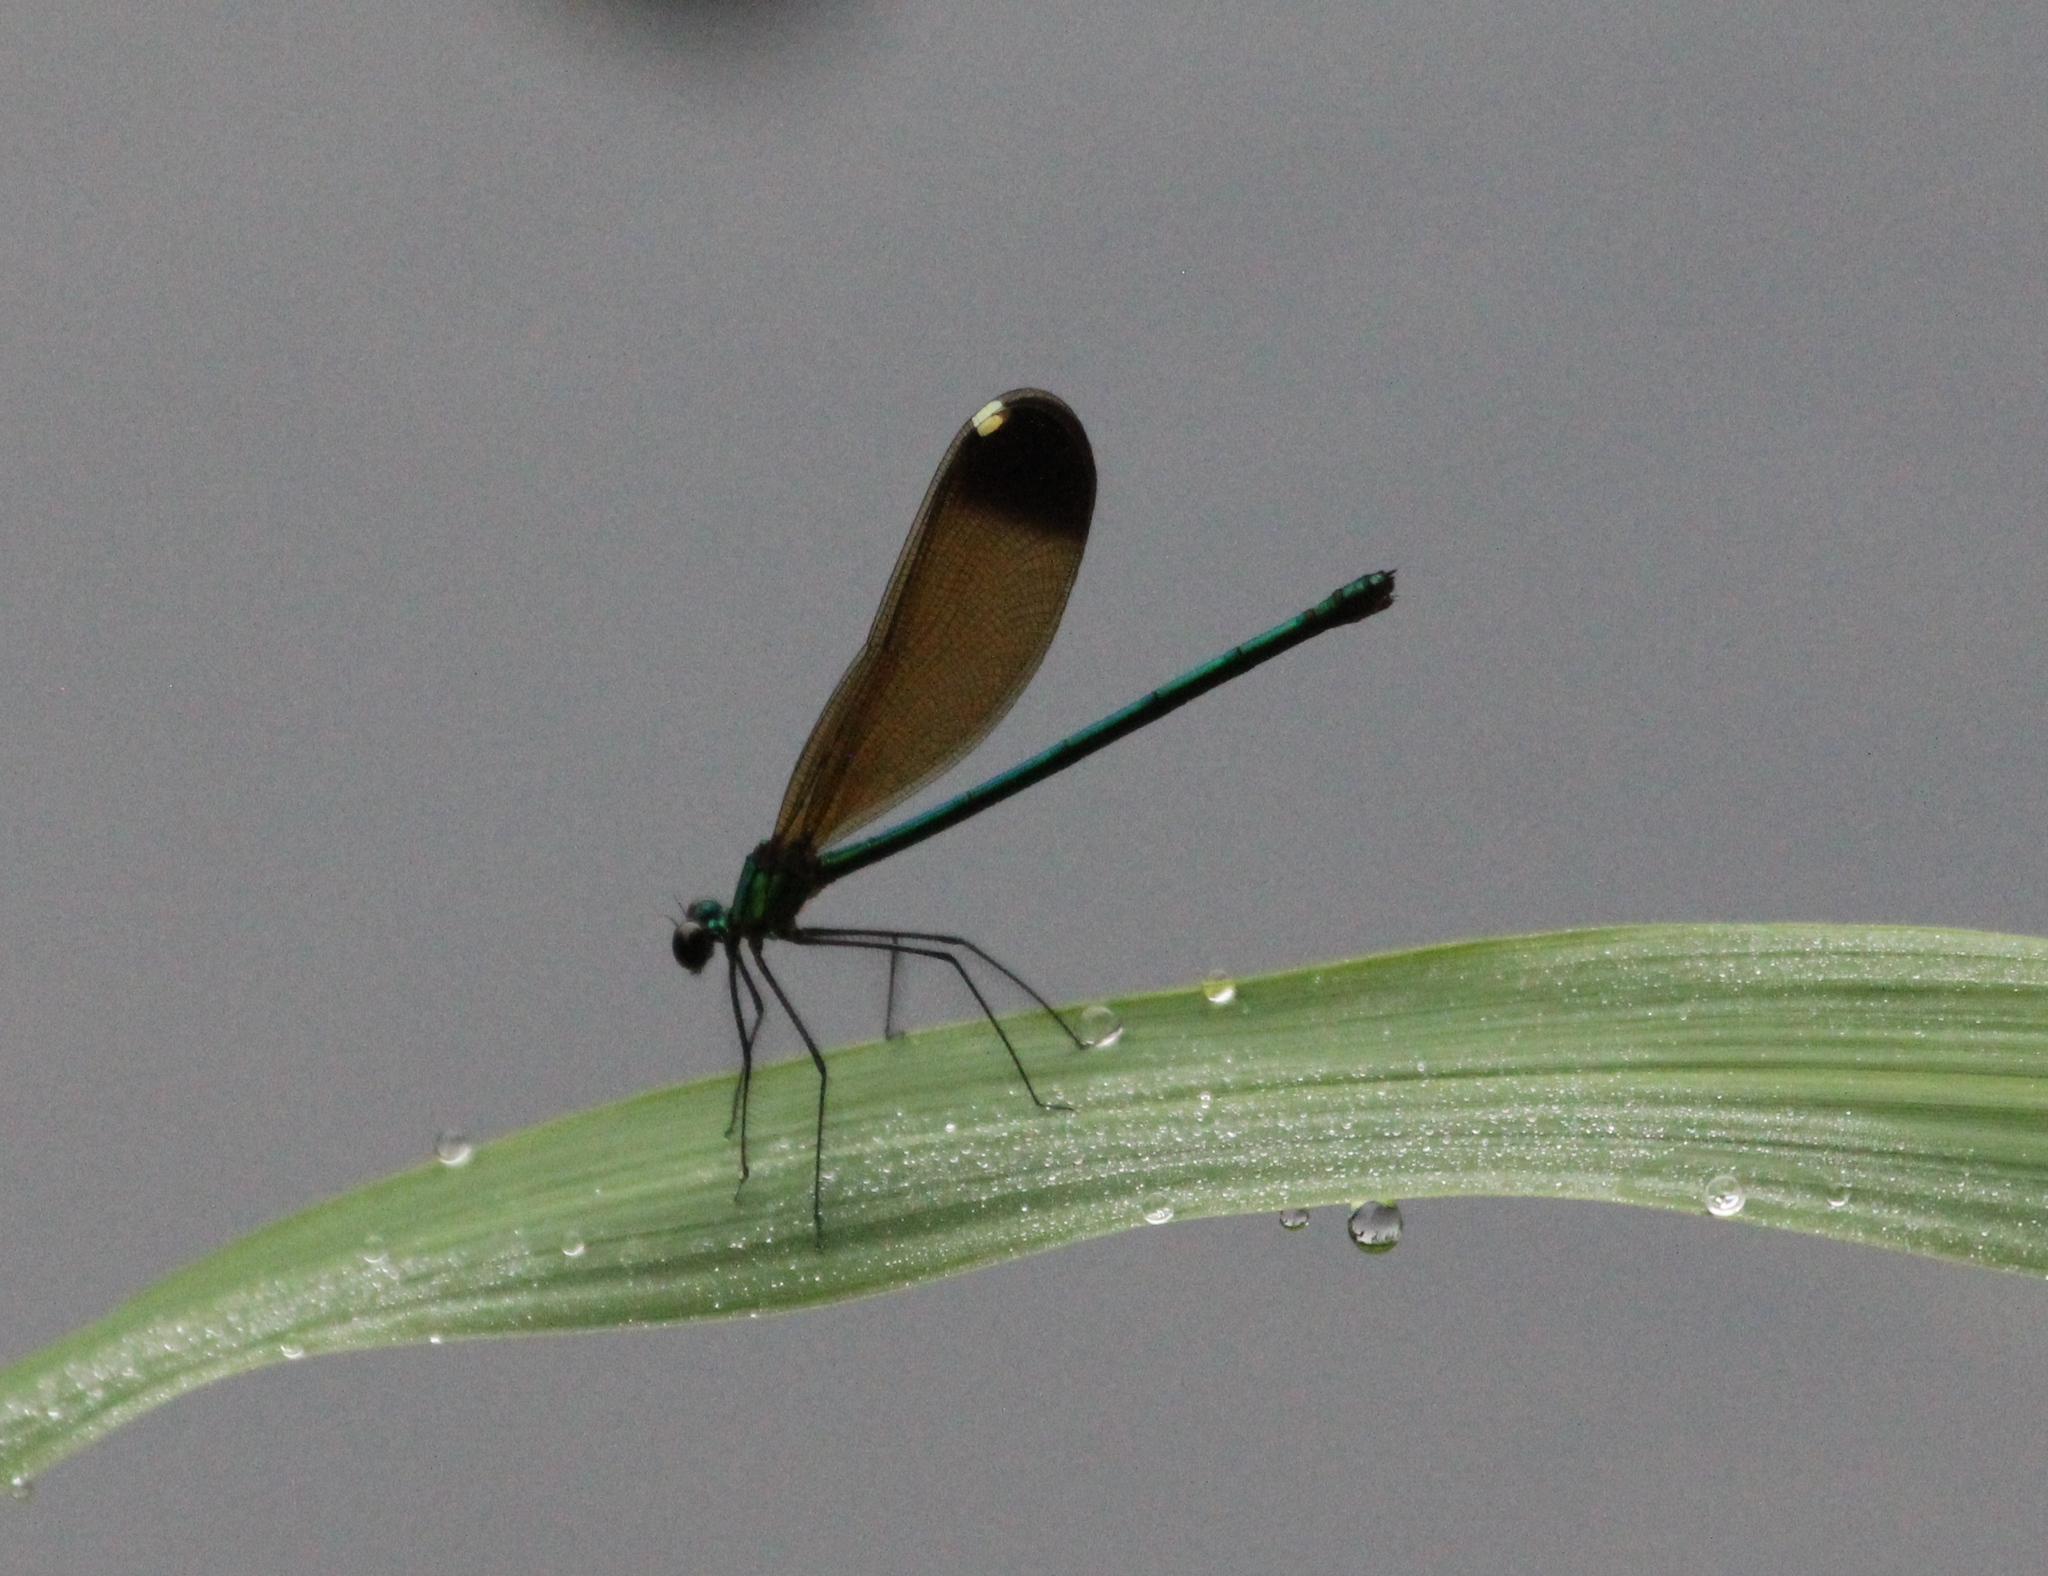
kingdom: Animalia
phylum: Arthropoda
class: Insecta
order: Odonata
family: Calopterygidae
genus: Calopteryx
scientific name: Calopteryx maculata
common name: Ebony jewelwing
